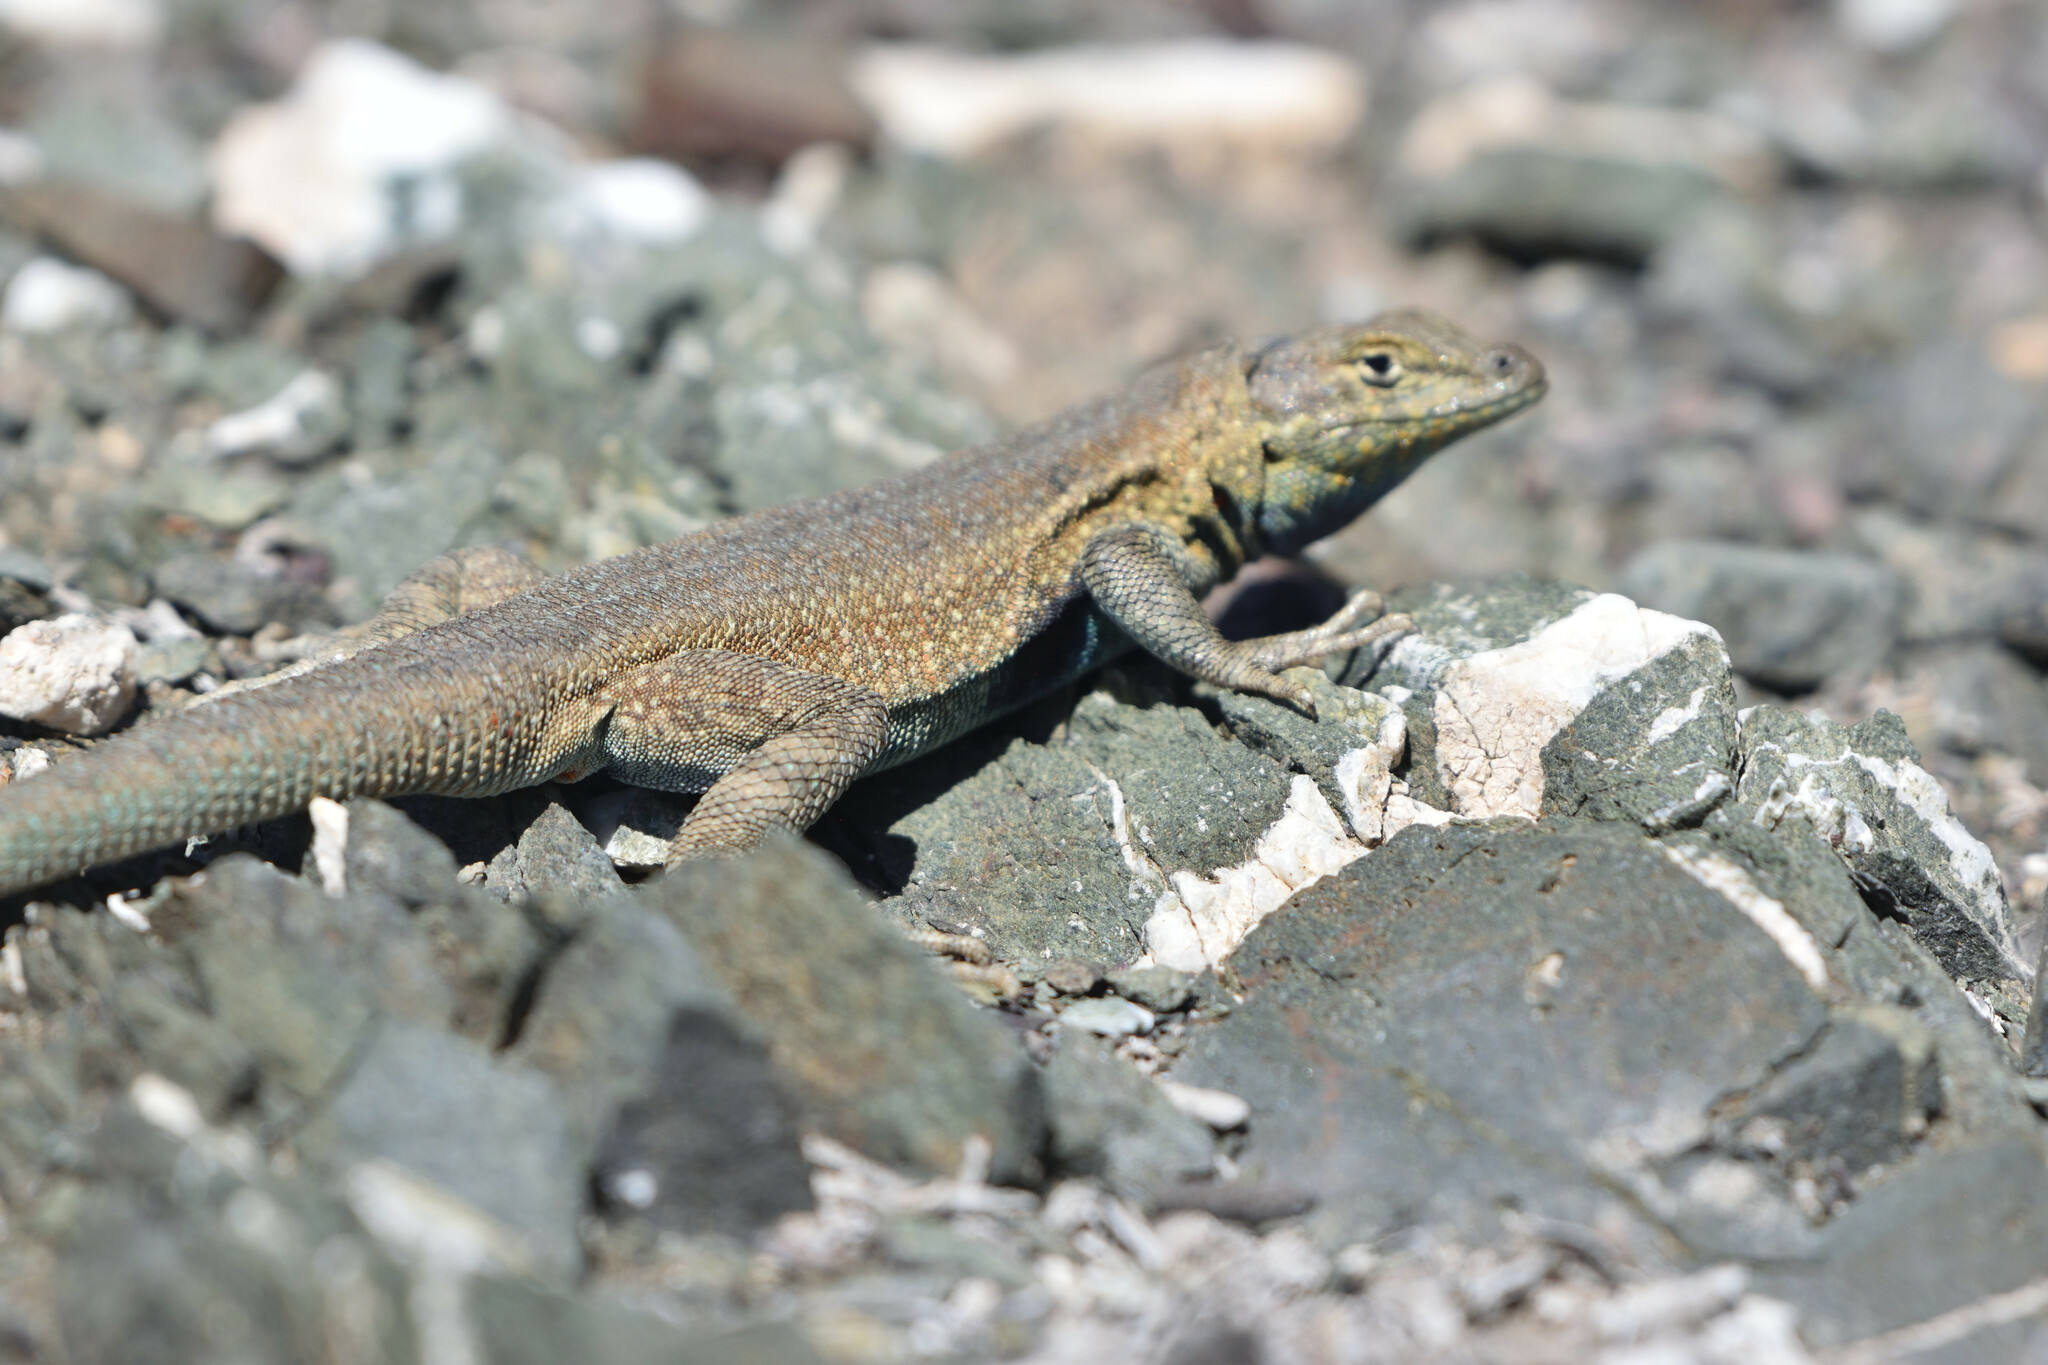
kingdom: Animalia
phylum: Chordata
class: Squamata
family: Phrynosomatidae
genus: Uta
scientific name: Uta stansburiana
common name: Side-blotched lizard
